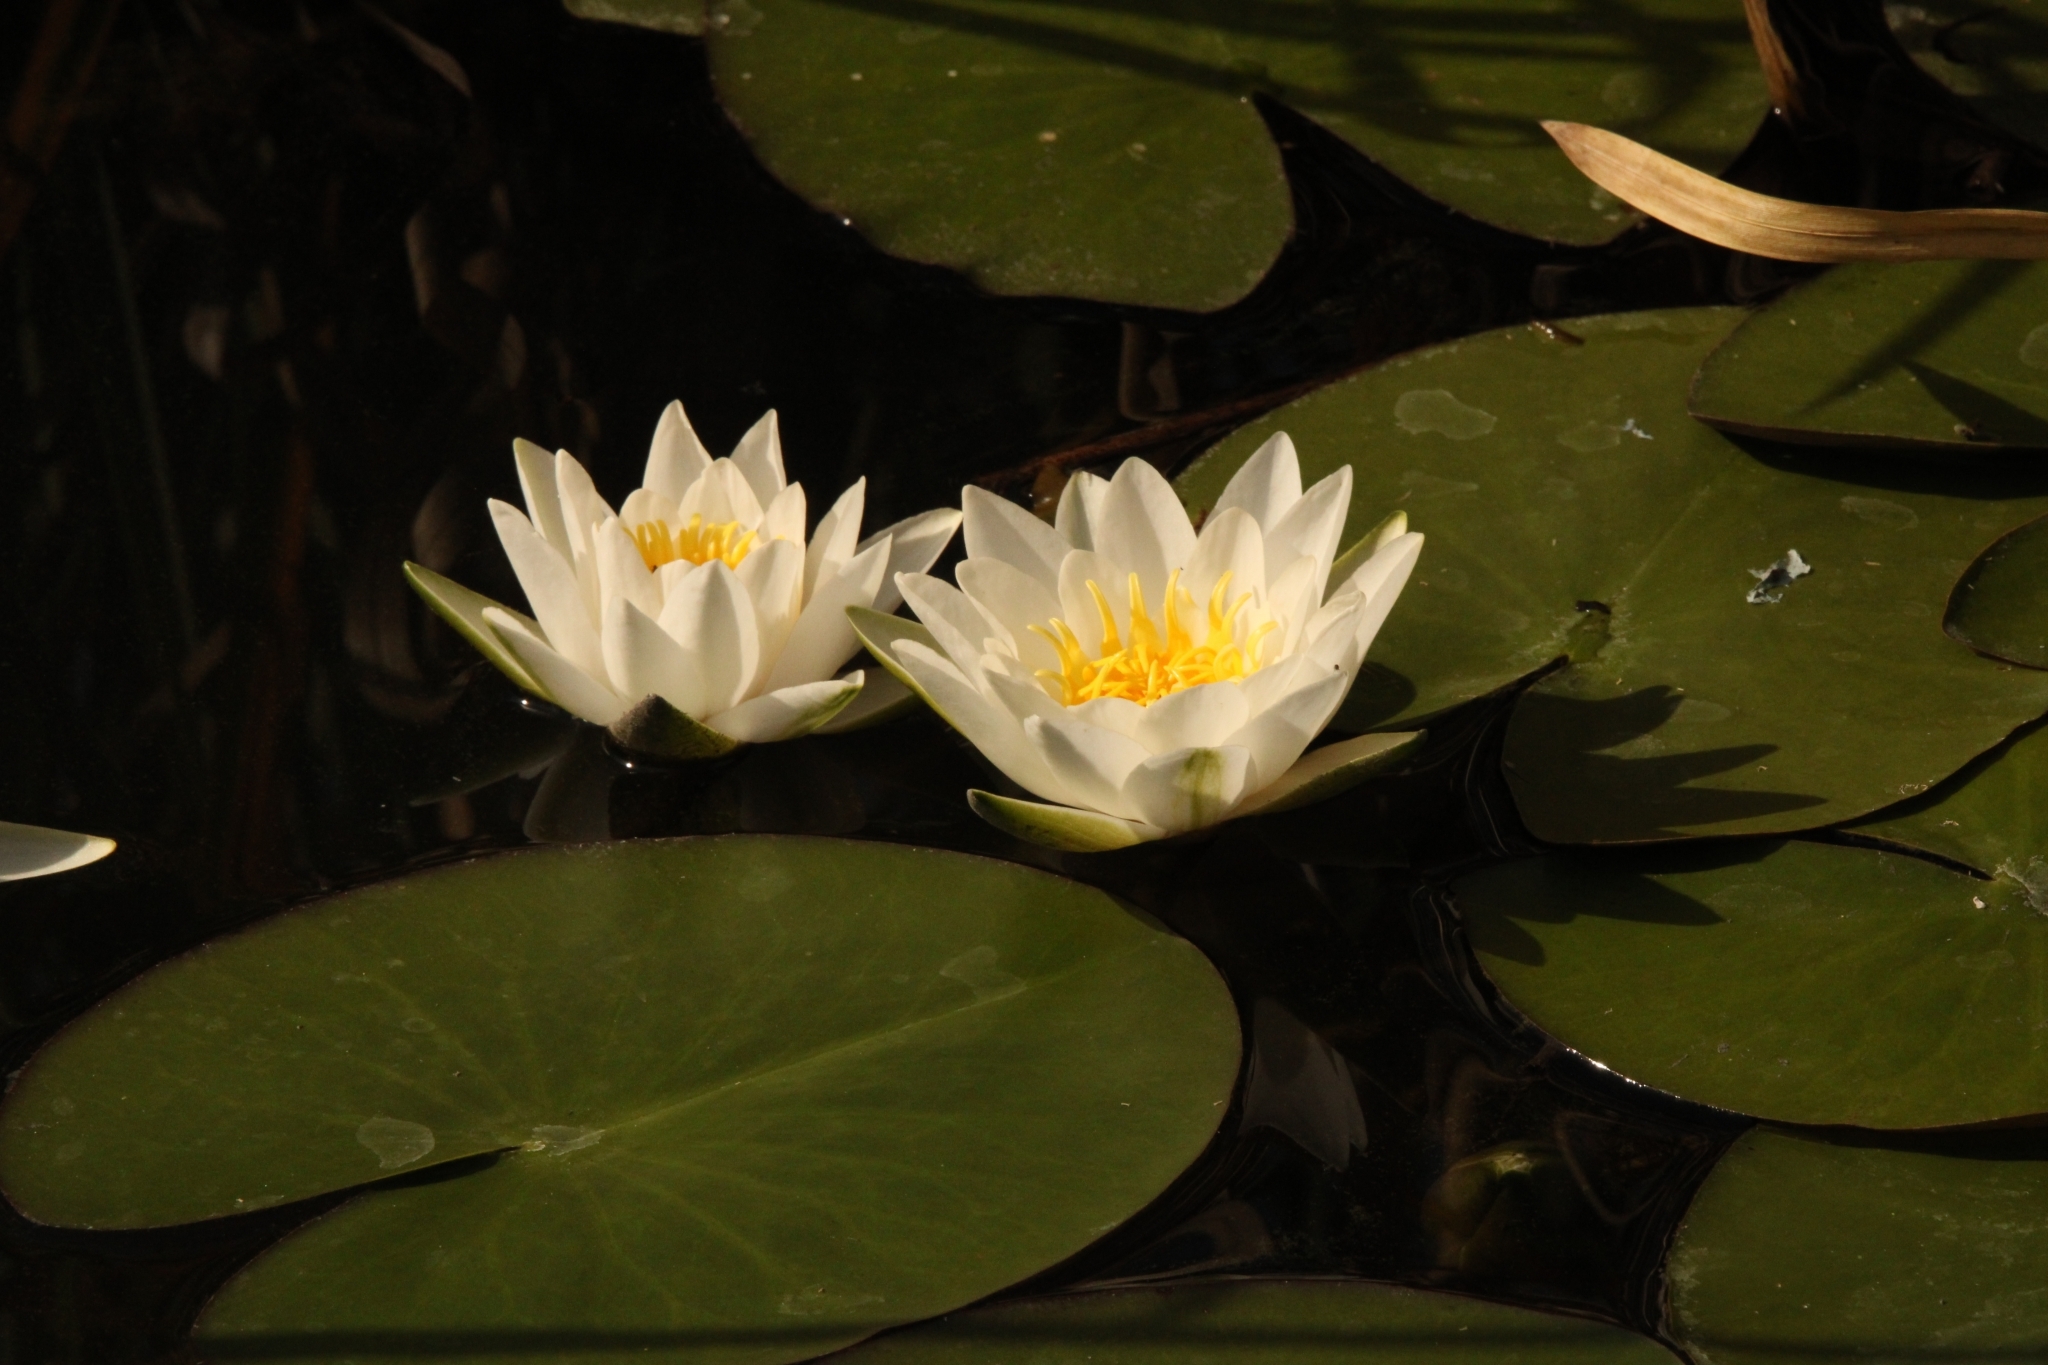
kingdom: Plantae
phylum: Tracheophyta
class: Magnoliopsida
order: Nymphaeales
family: Nymphaeaceae
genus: Nymphaea
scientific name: Nymphaea alba
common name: White water-lily
